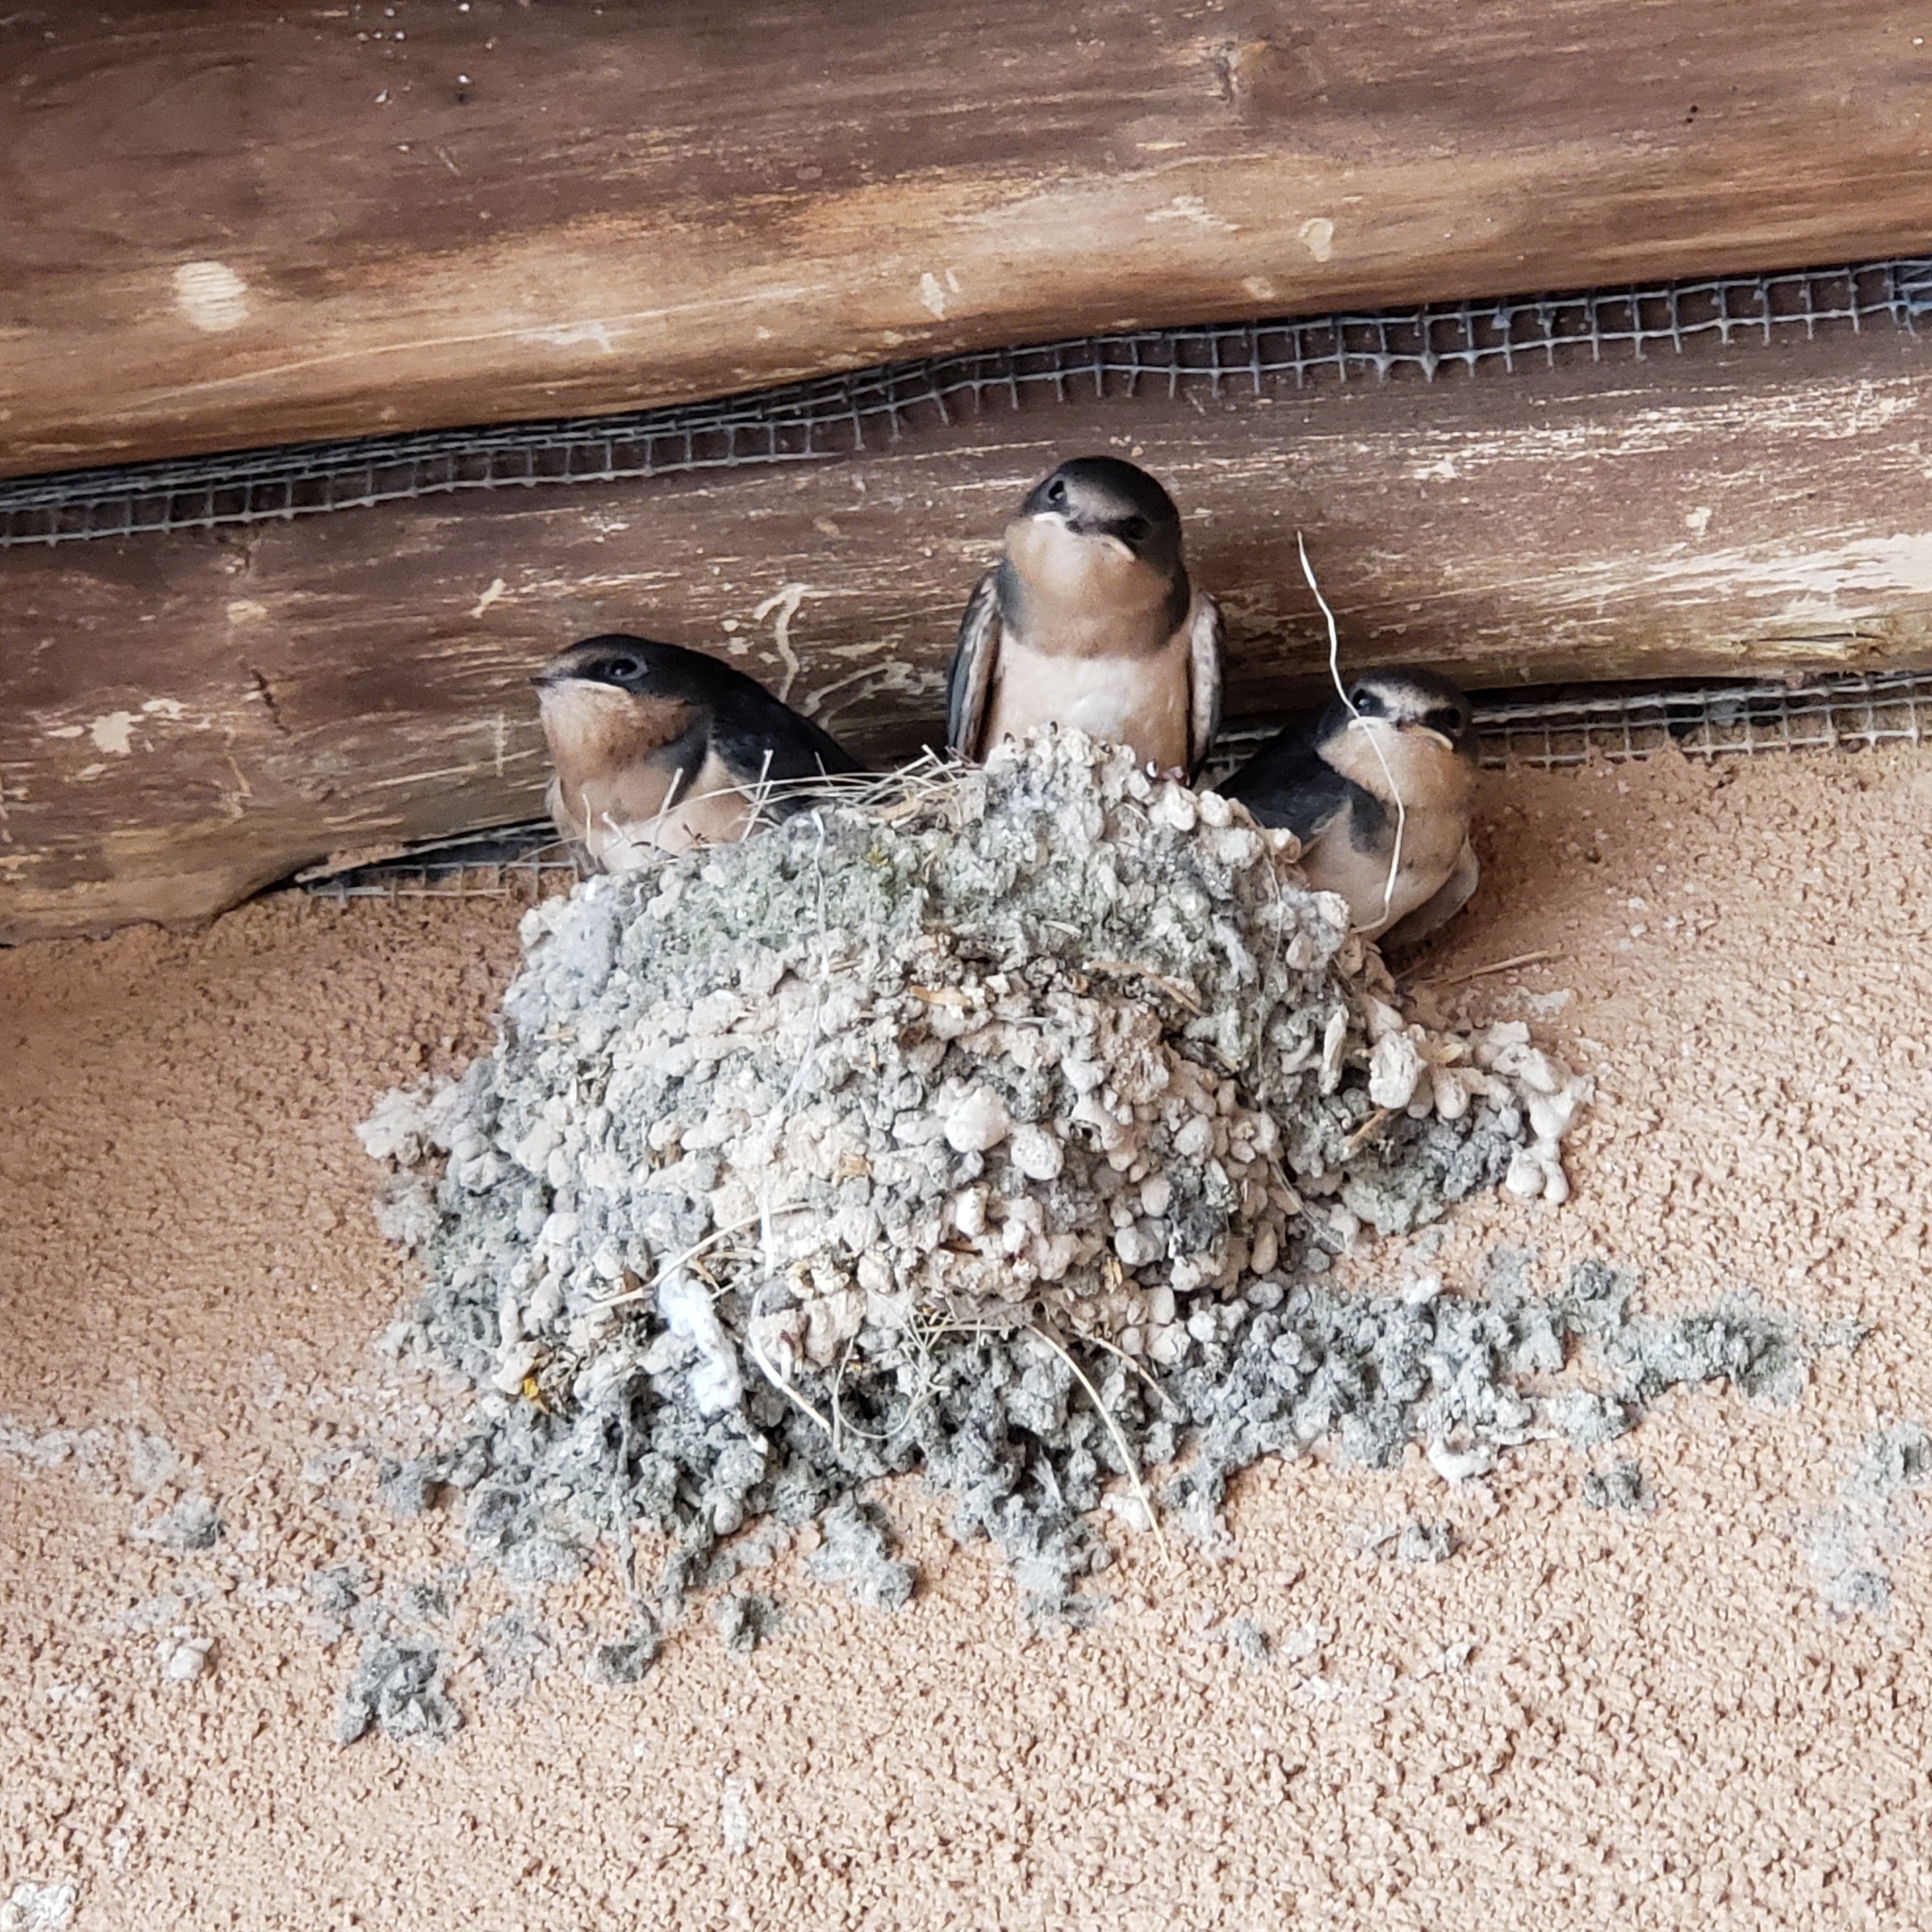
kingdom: Animalia
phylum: Chordata
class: Aves
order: Passeriformes
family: Hirundinidae
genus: Hirundo
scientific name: Hirundo rustica
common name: Barn swallow
